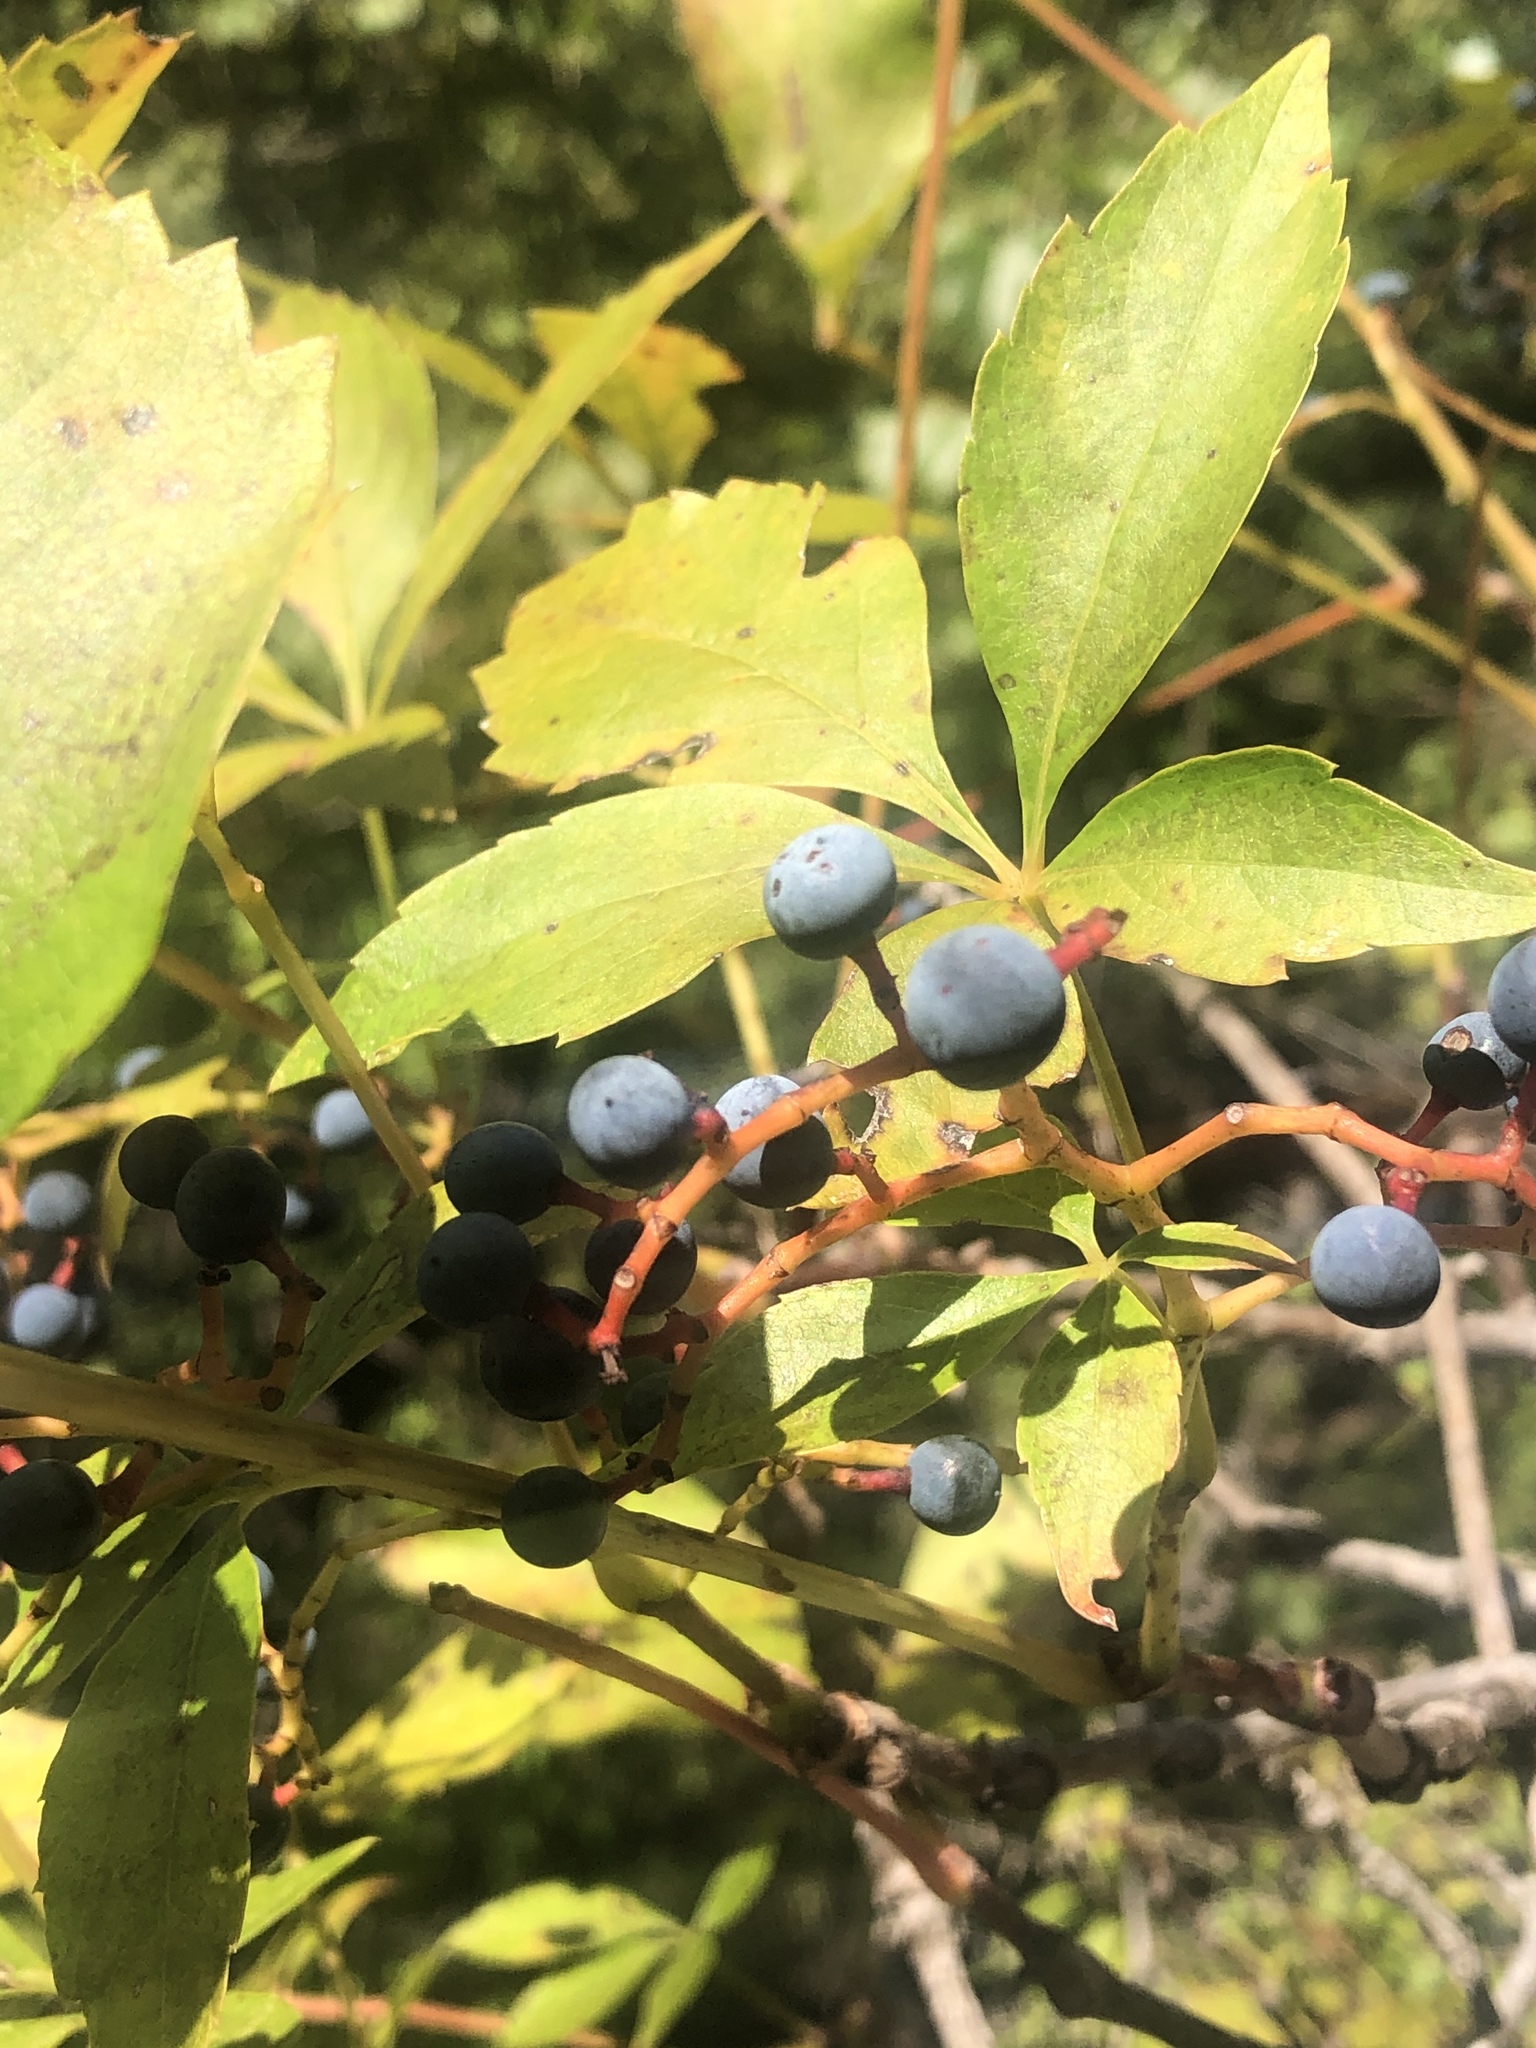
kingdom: Plantae
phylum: Tracheophyta
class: Magnoliopsida
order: Vitales
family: Vitaceae
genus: Parthenocissus
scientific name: Parthenocissus quinquefolia
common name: Virginia-creeper
